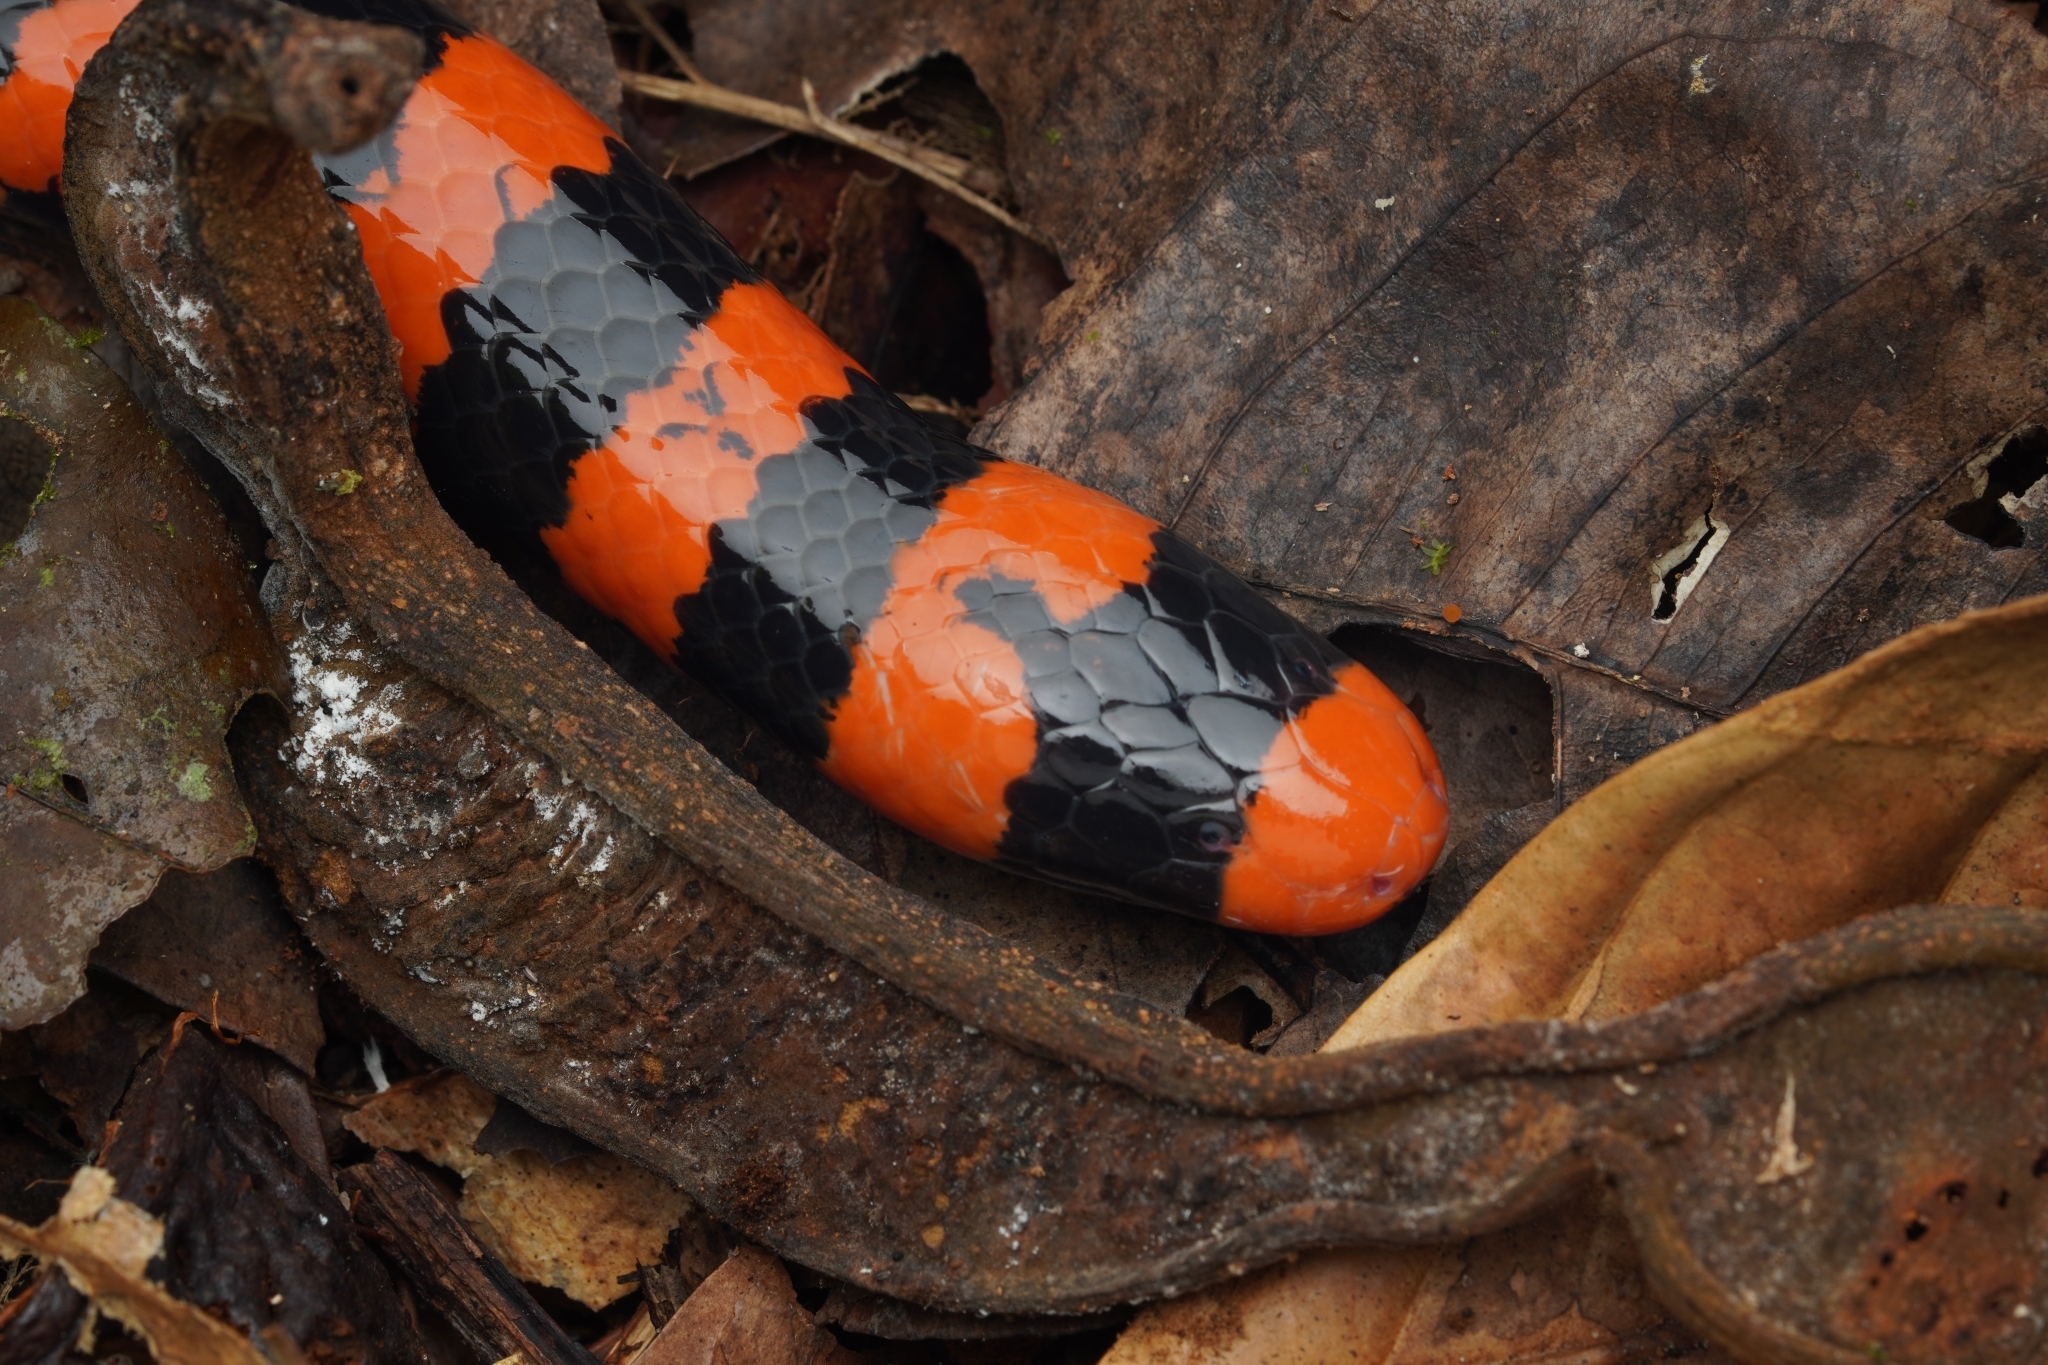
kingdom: Animalia
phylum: Chordata
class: Squamata
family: Aniliidae
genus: Anilius
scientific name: Anilius scytale
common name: Coral pipe snakes
